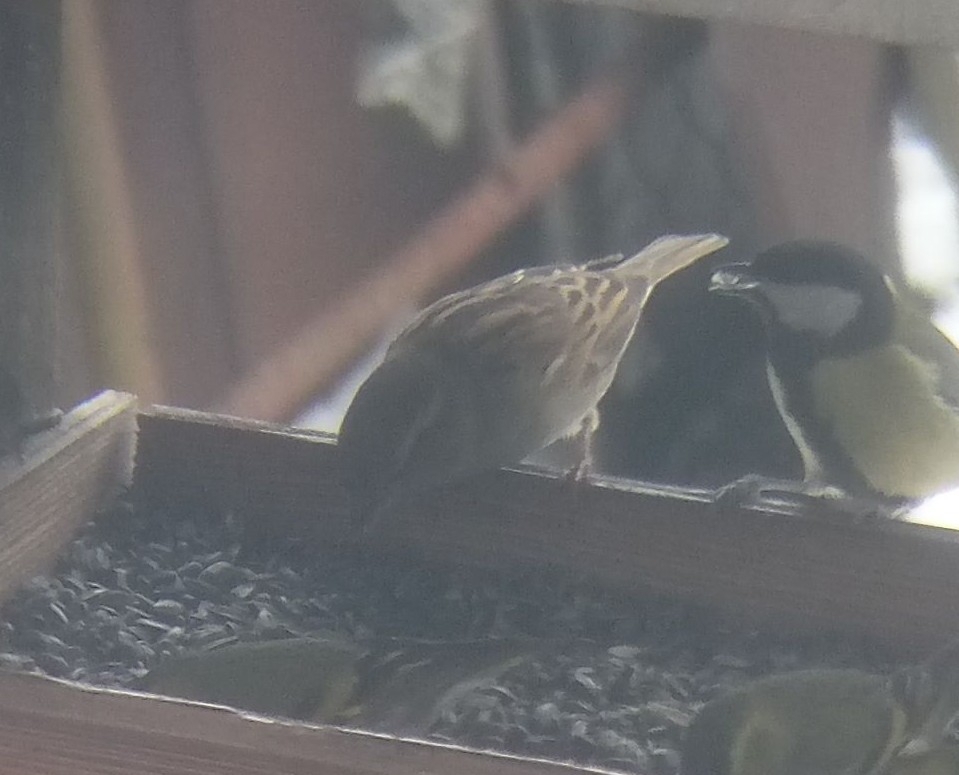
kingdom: Animalia
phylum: Chordata
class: Aves
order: Passeriformes
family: Passeridae
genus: Passer
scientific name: Passer domesticus
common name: House sparrow
